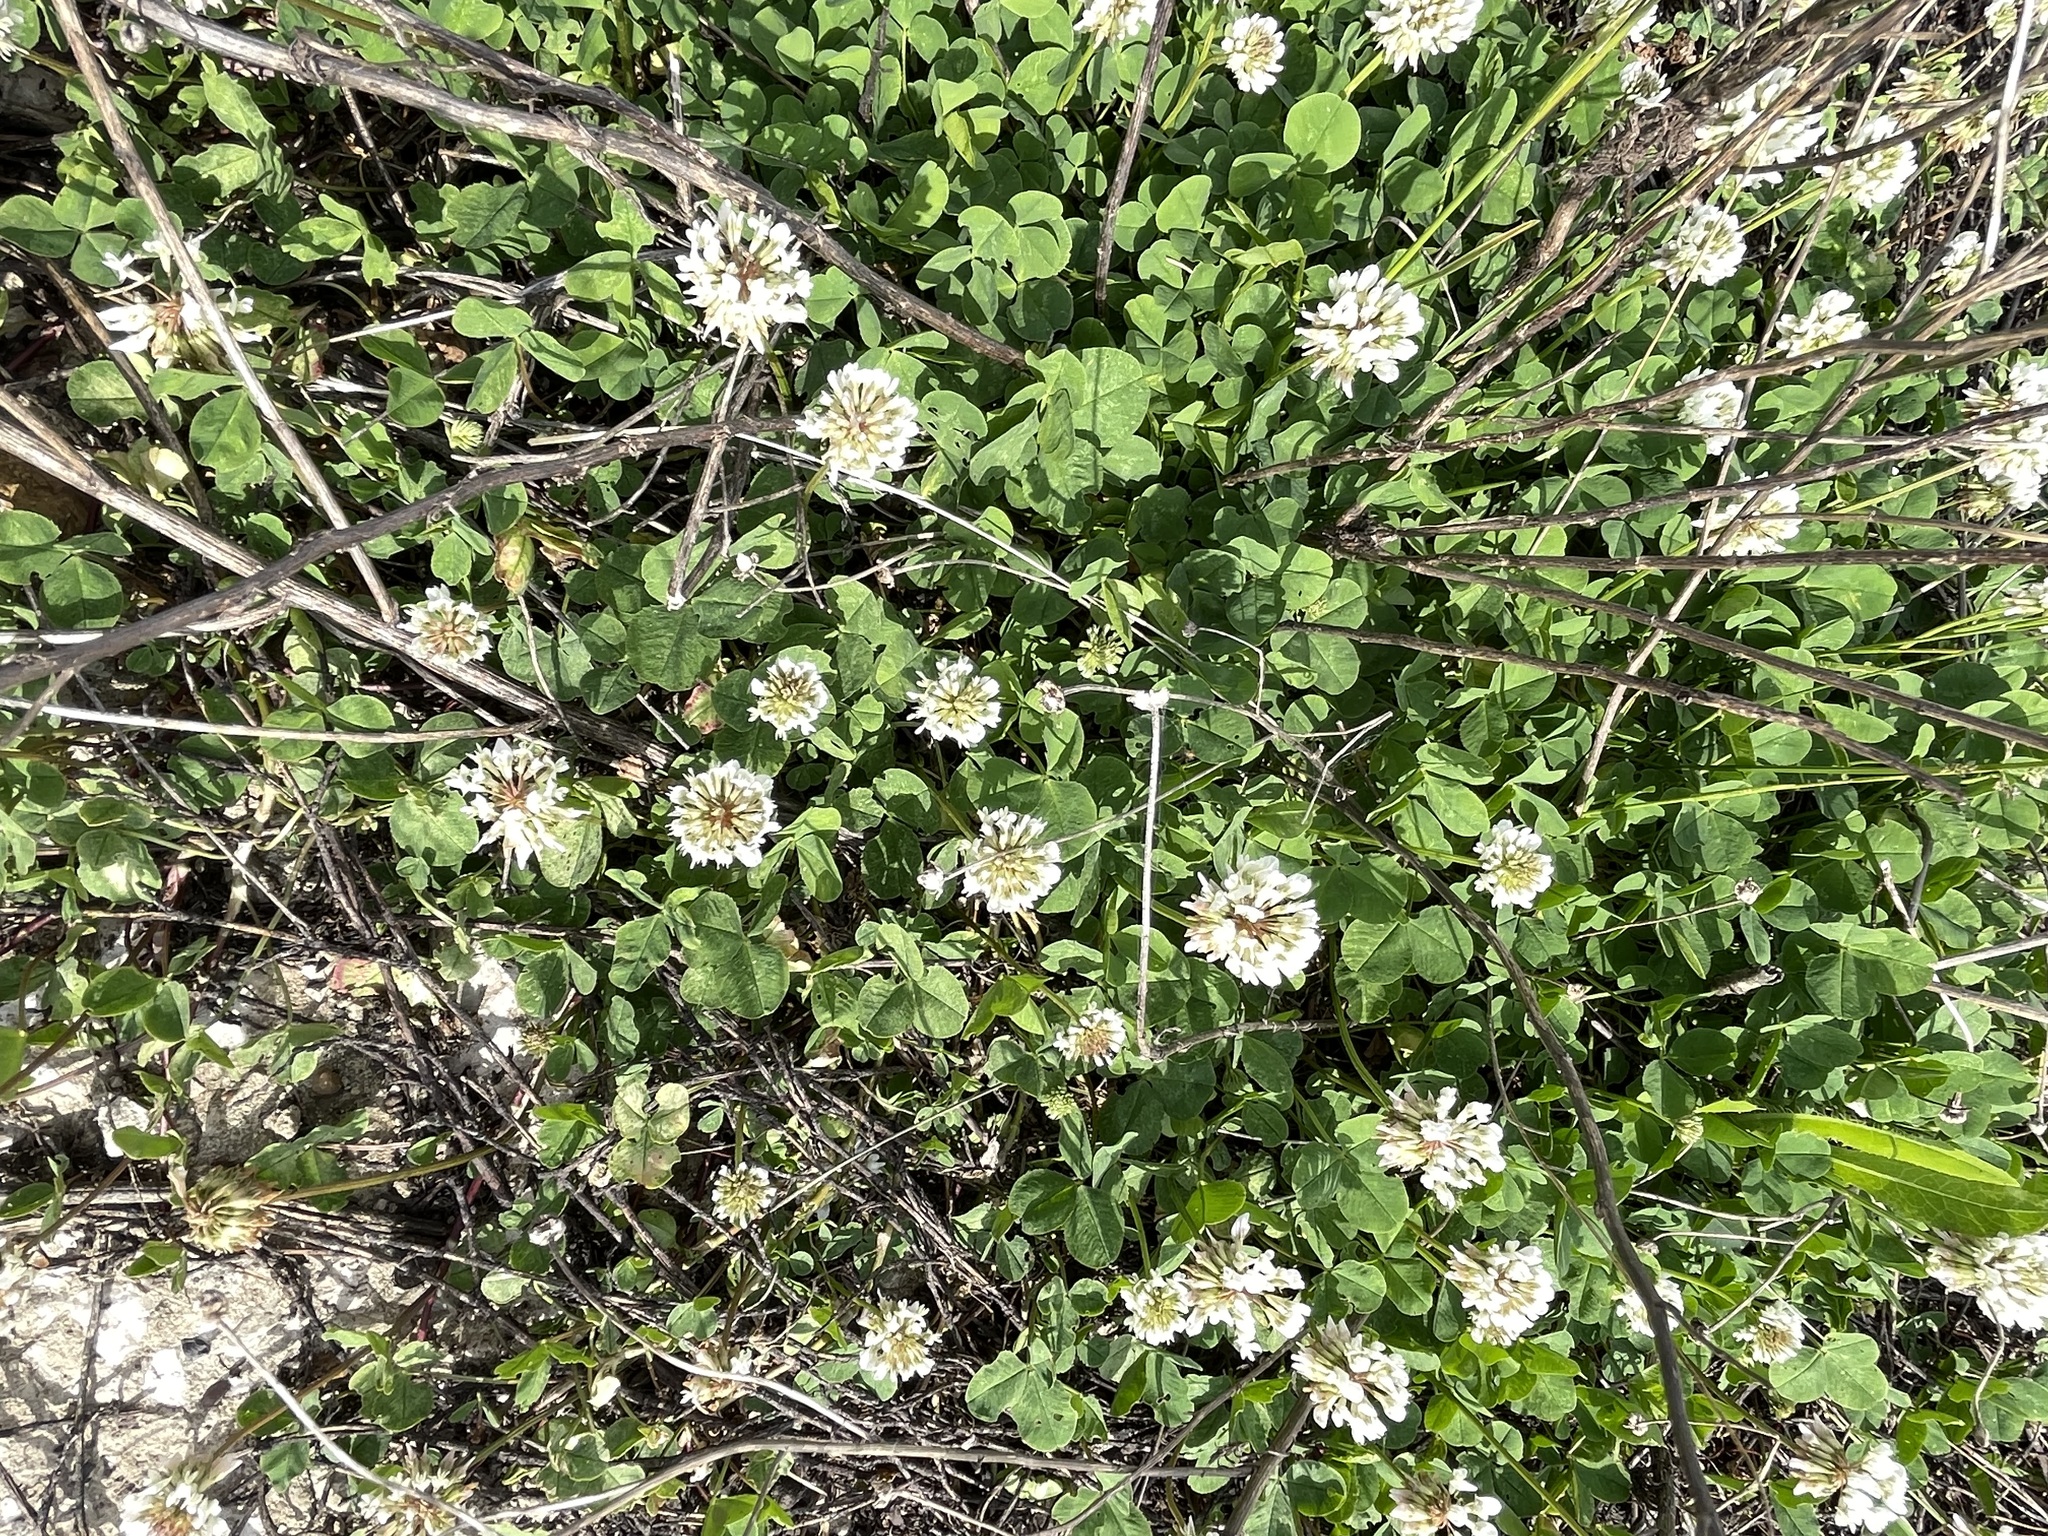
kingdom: Plantae
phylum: Tracheophyta
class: Magnoliopsida
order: Fabales
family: Fabaceae
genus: Trifolium
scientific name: Trifolium repens
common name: White clover
